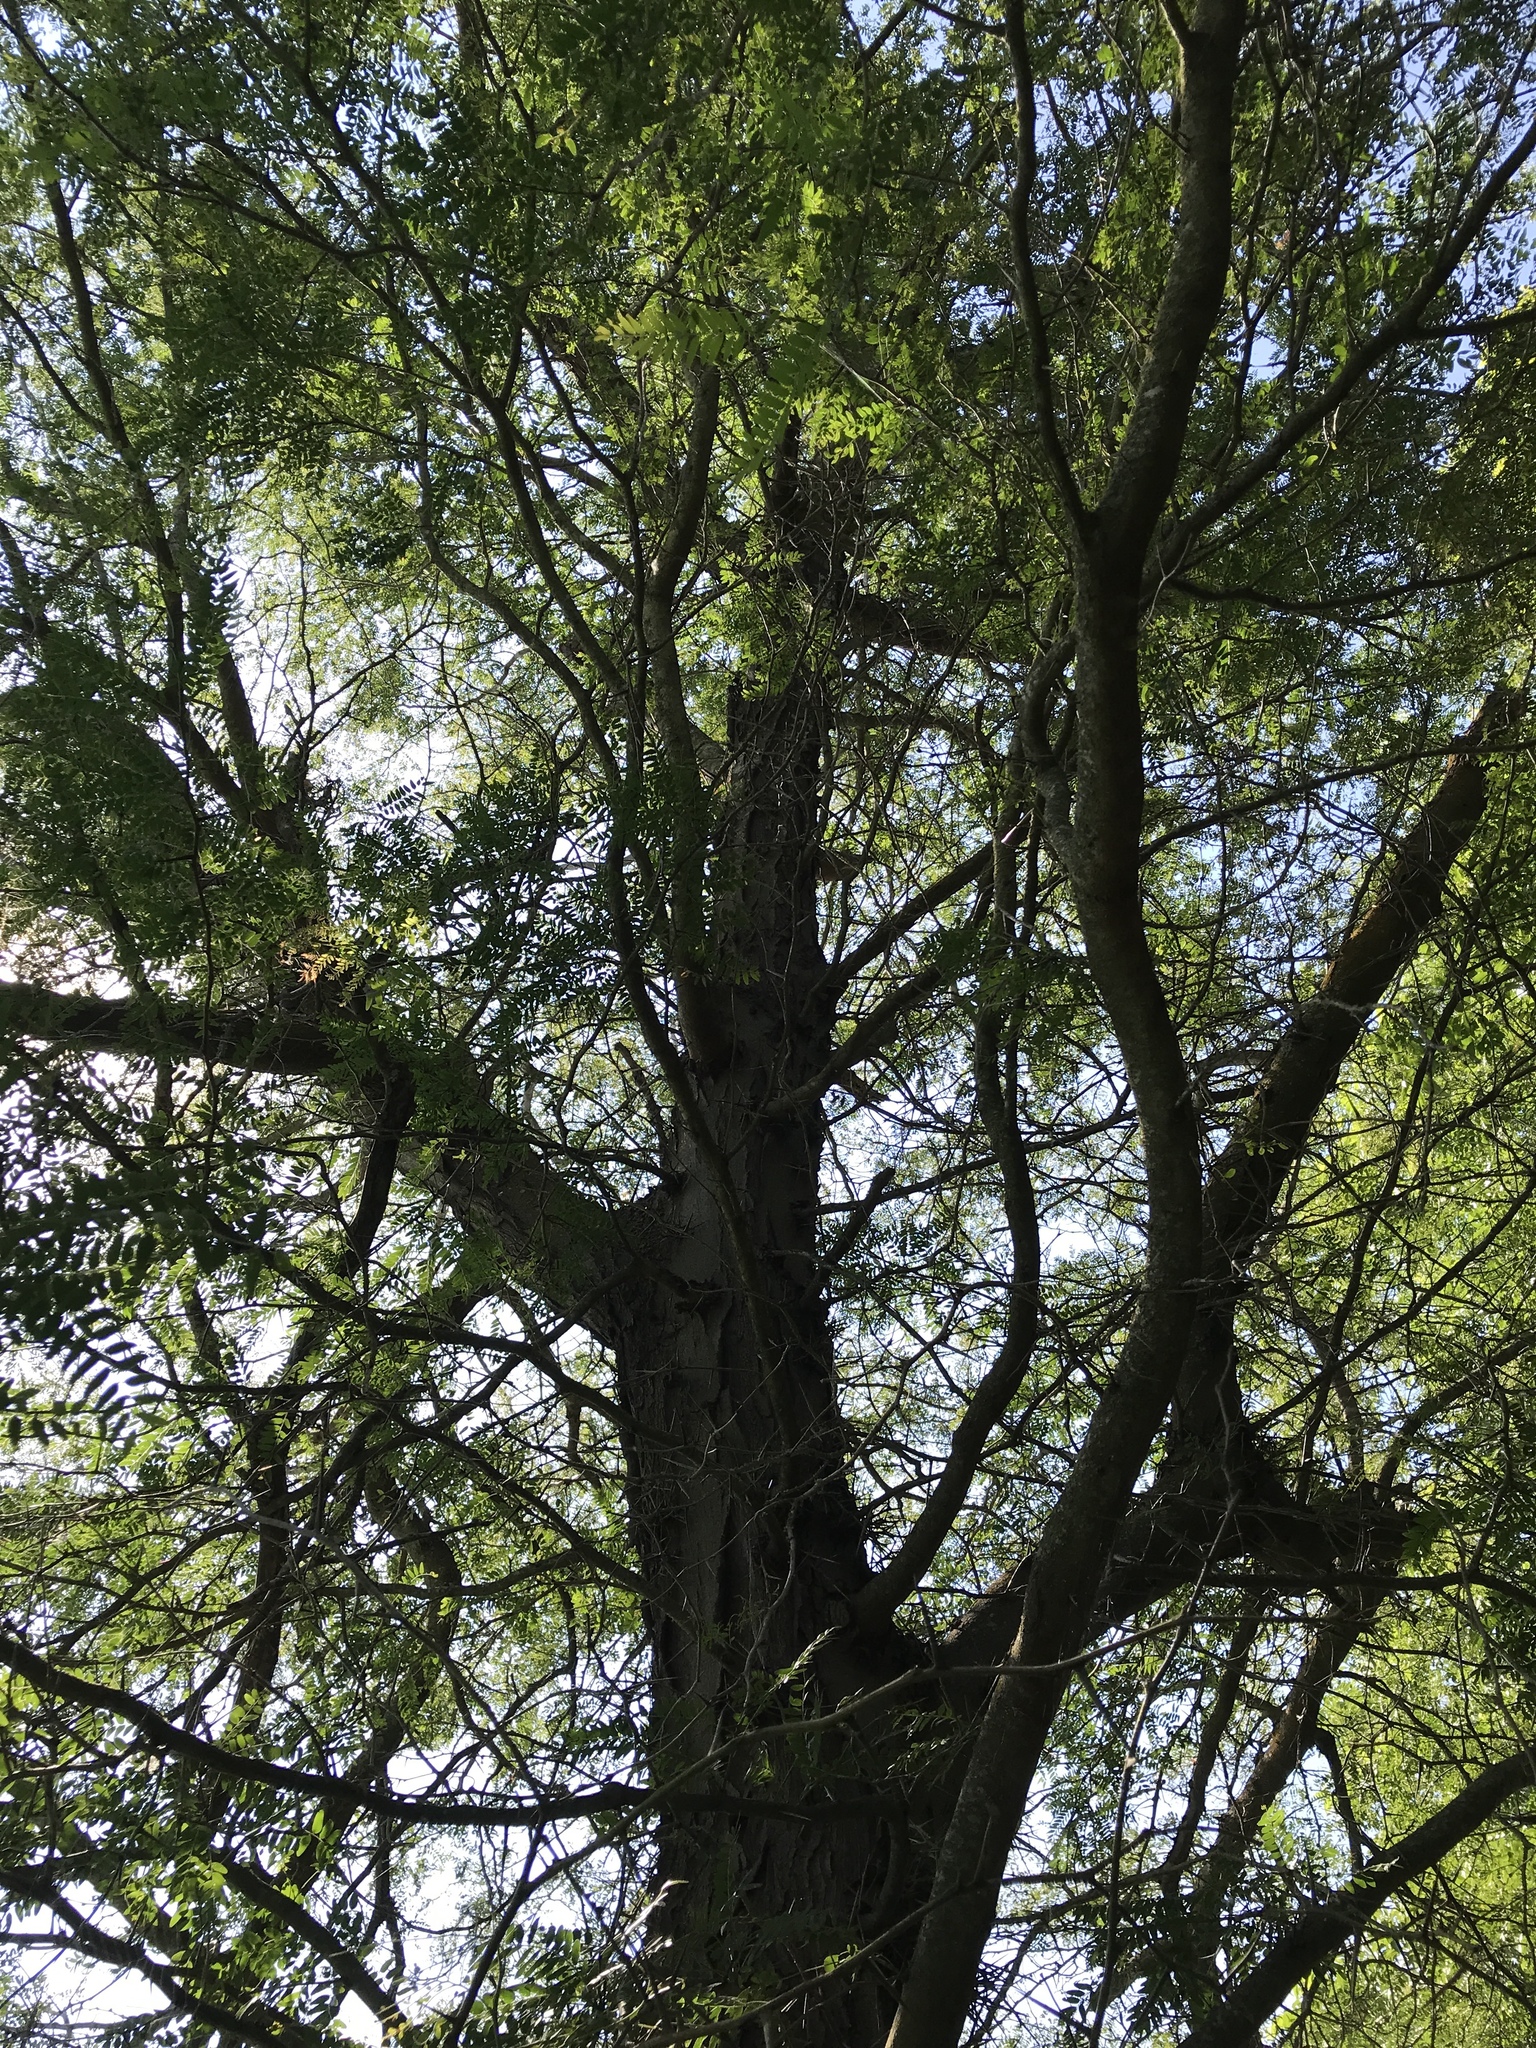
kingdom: Plantae
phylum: Tracheophyta
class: Magnoliopsida
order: Fabales
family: Fabaceae
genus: Gleditsia
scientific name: Gleditsia triacanthos
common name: Common honeylocust
